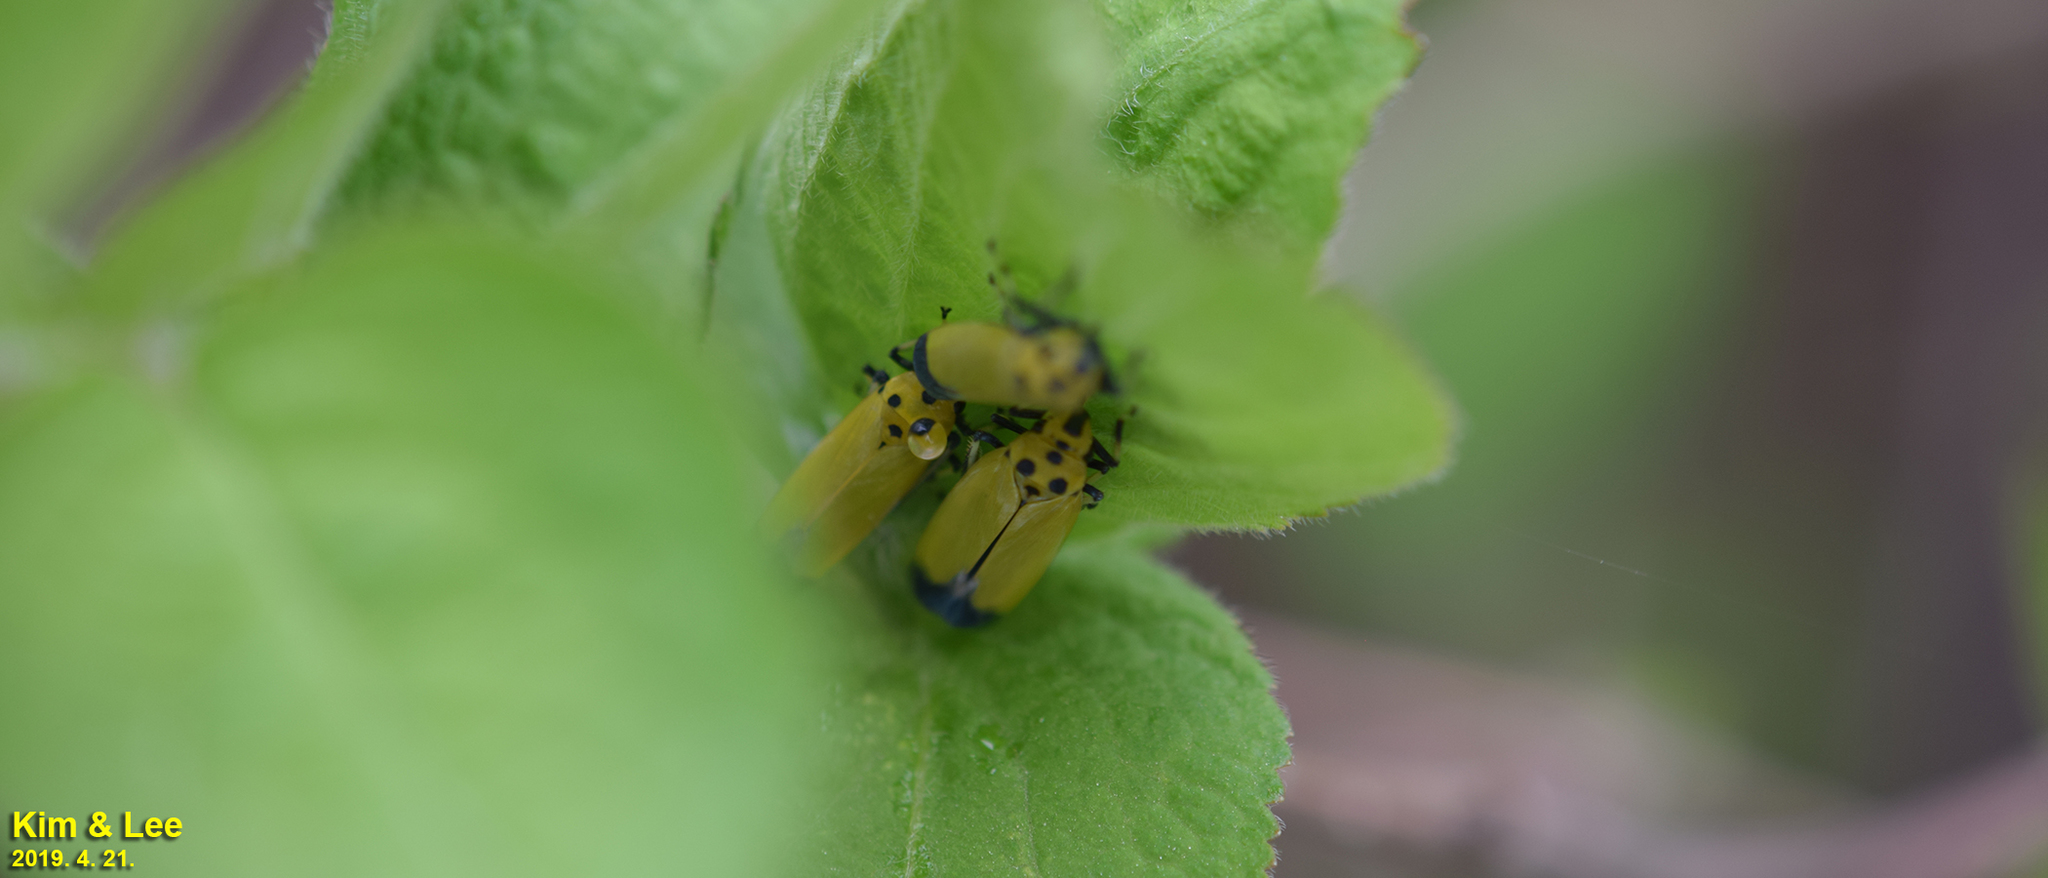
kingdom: Animalia
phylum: Arthropoda
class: Insecta
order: Hemiptera
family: Cicadellidae
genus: Bothrogonia
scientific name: Bothrogonia ferruginea
